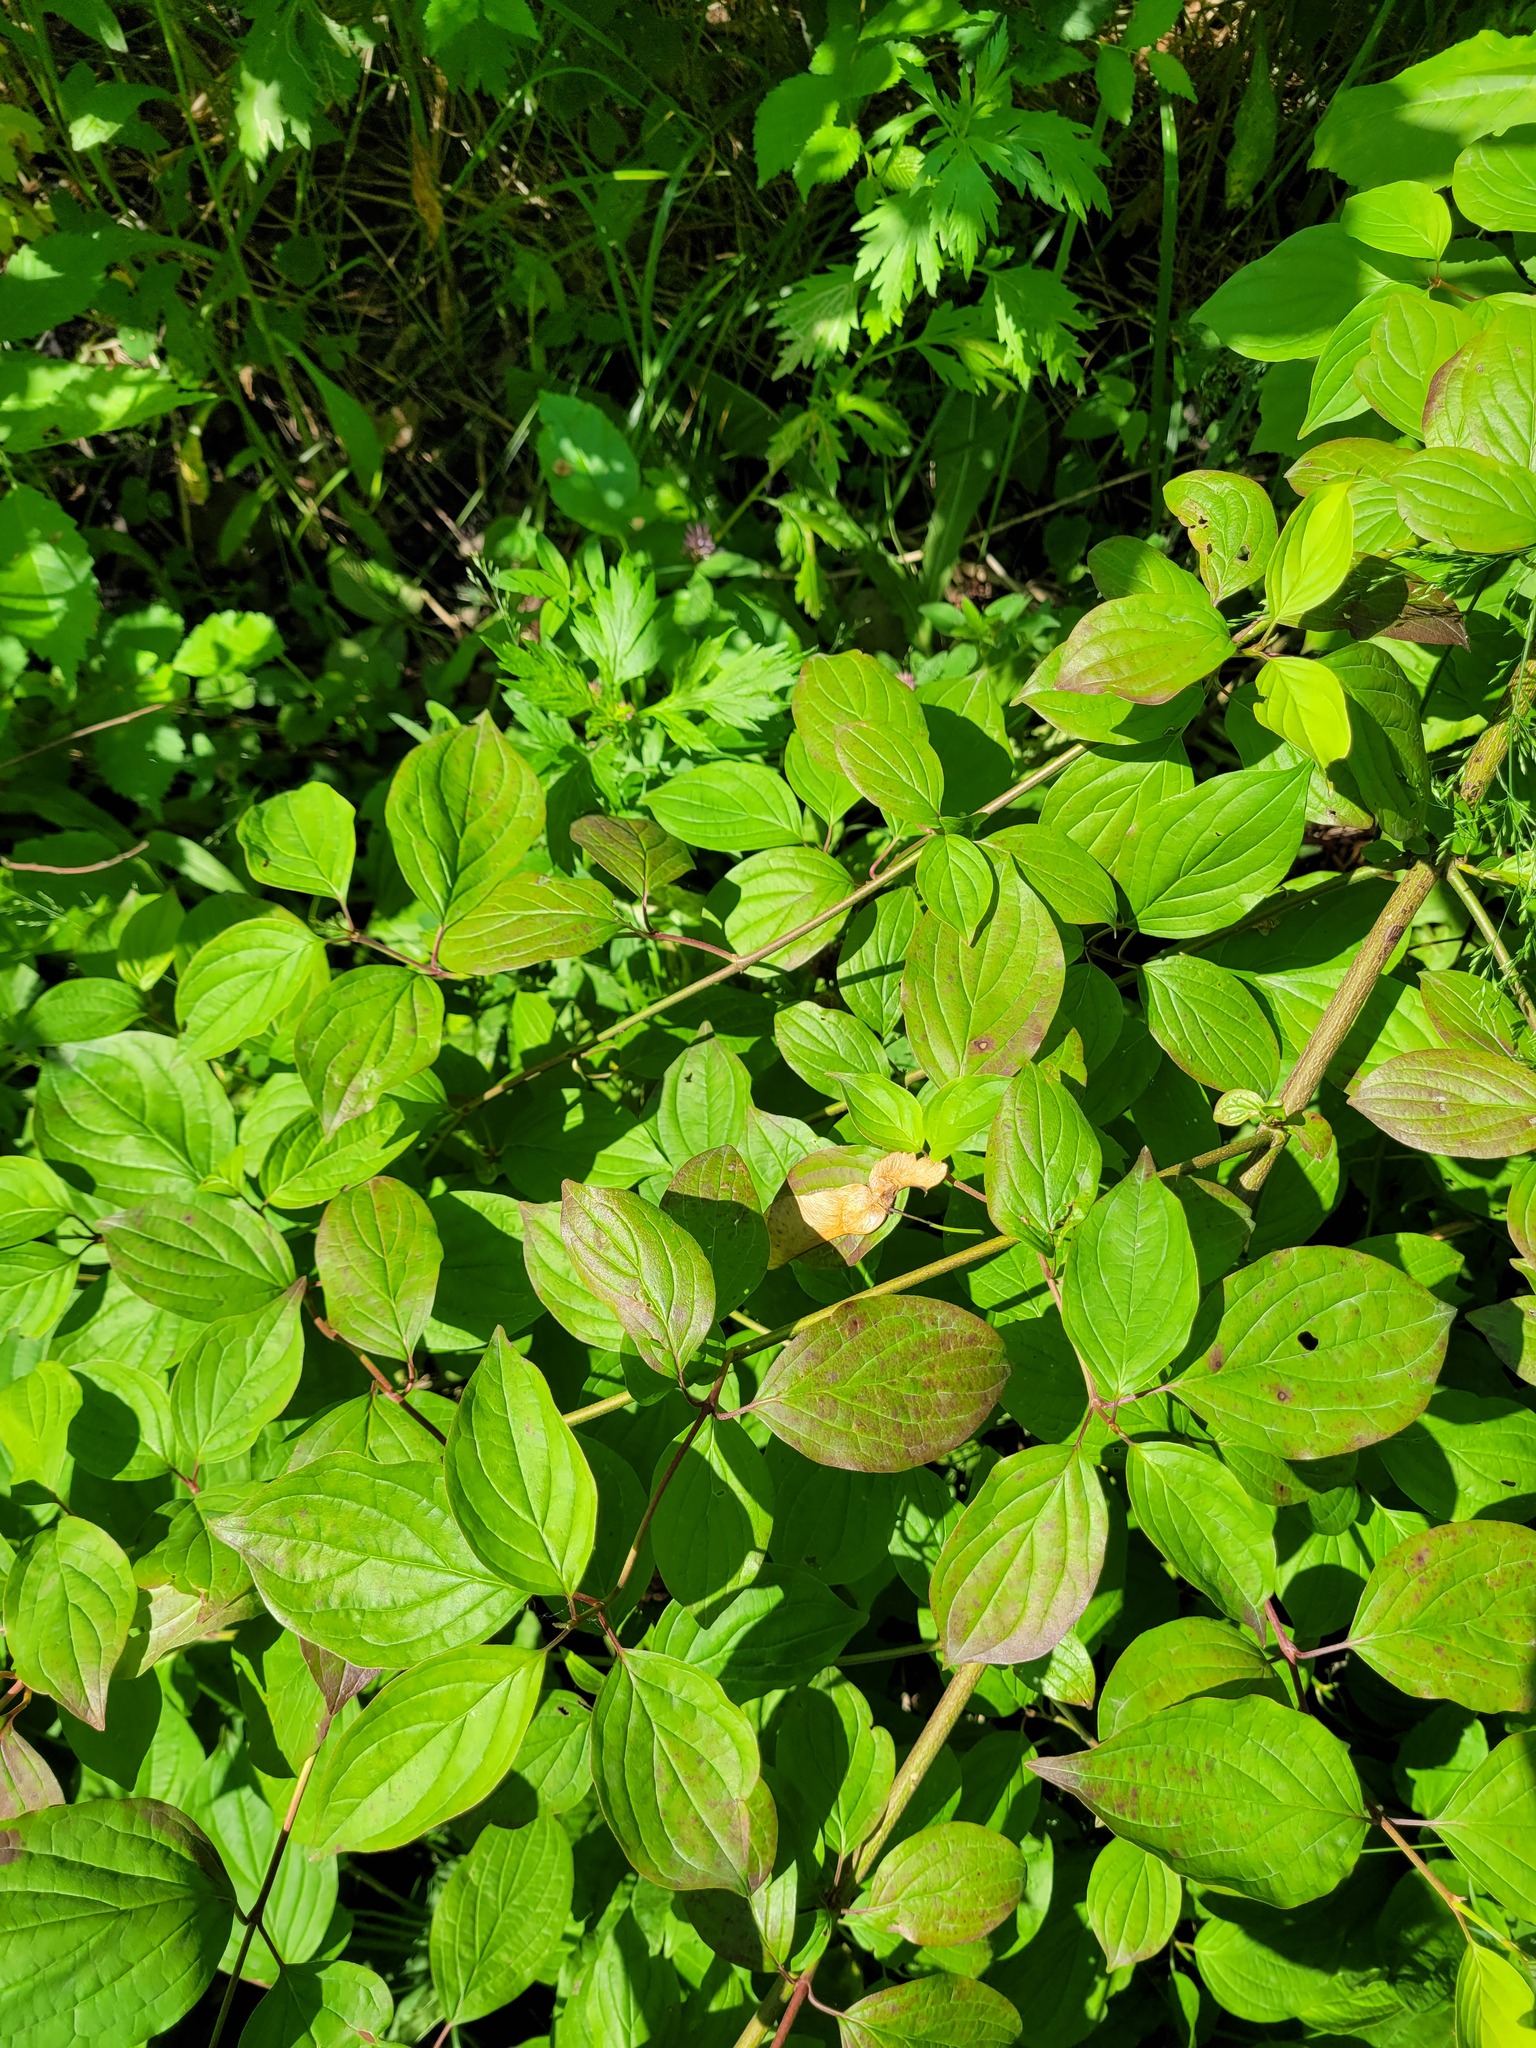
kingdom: Plantae
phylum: Tracheophyta
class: Magnoliopsida
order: Cornales
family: Cornaceae
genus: Cornus
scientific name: Cornus sanguinea
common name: Dogwood
